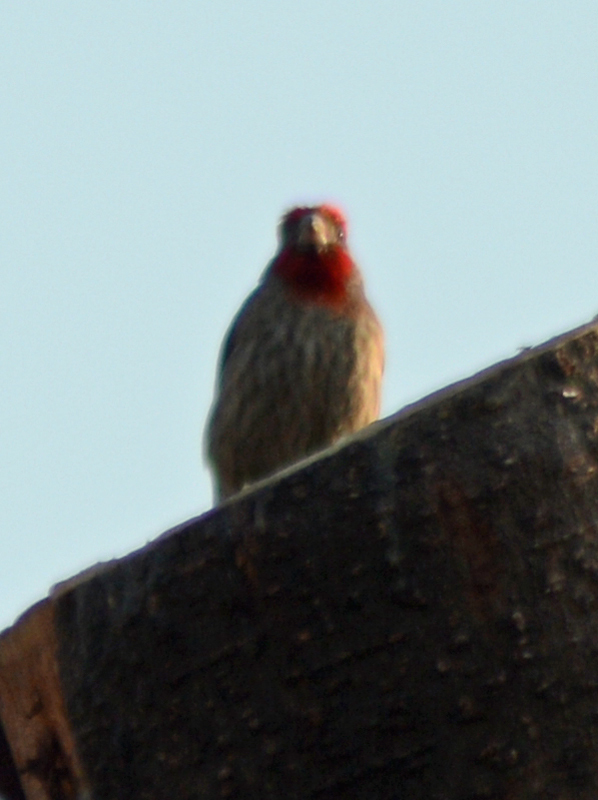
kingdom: Animalia
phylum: Chordata
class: Aves
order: Passeriformes
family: Fringillidae
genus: Haemorhous
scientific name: Haemorhous mexicanus
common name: House finch
